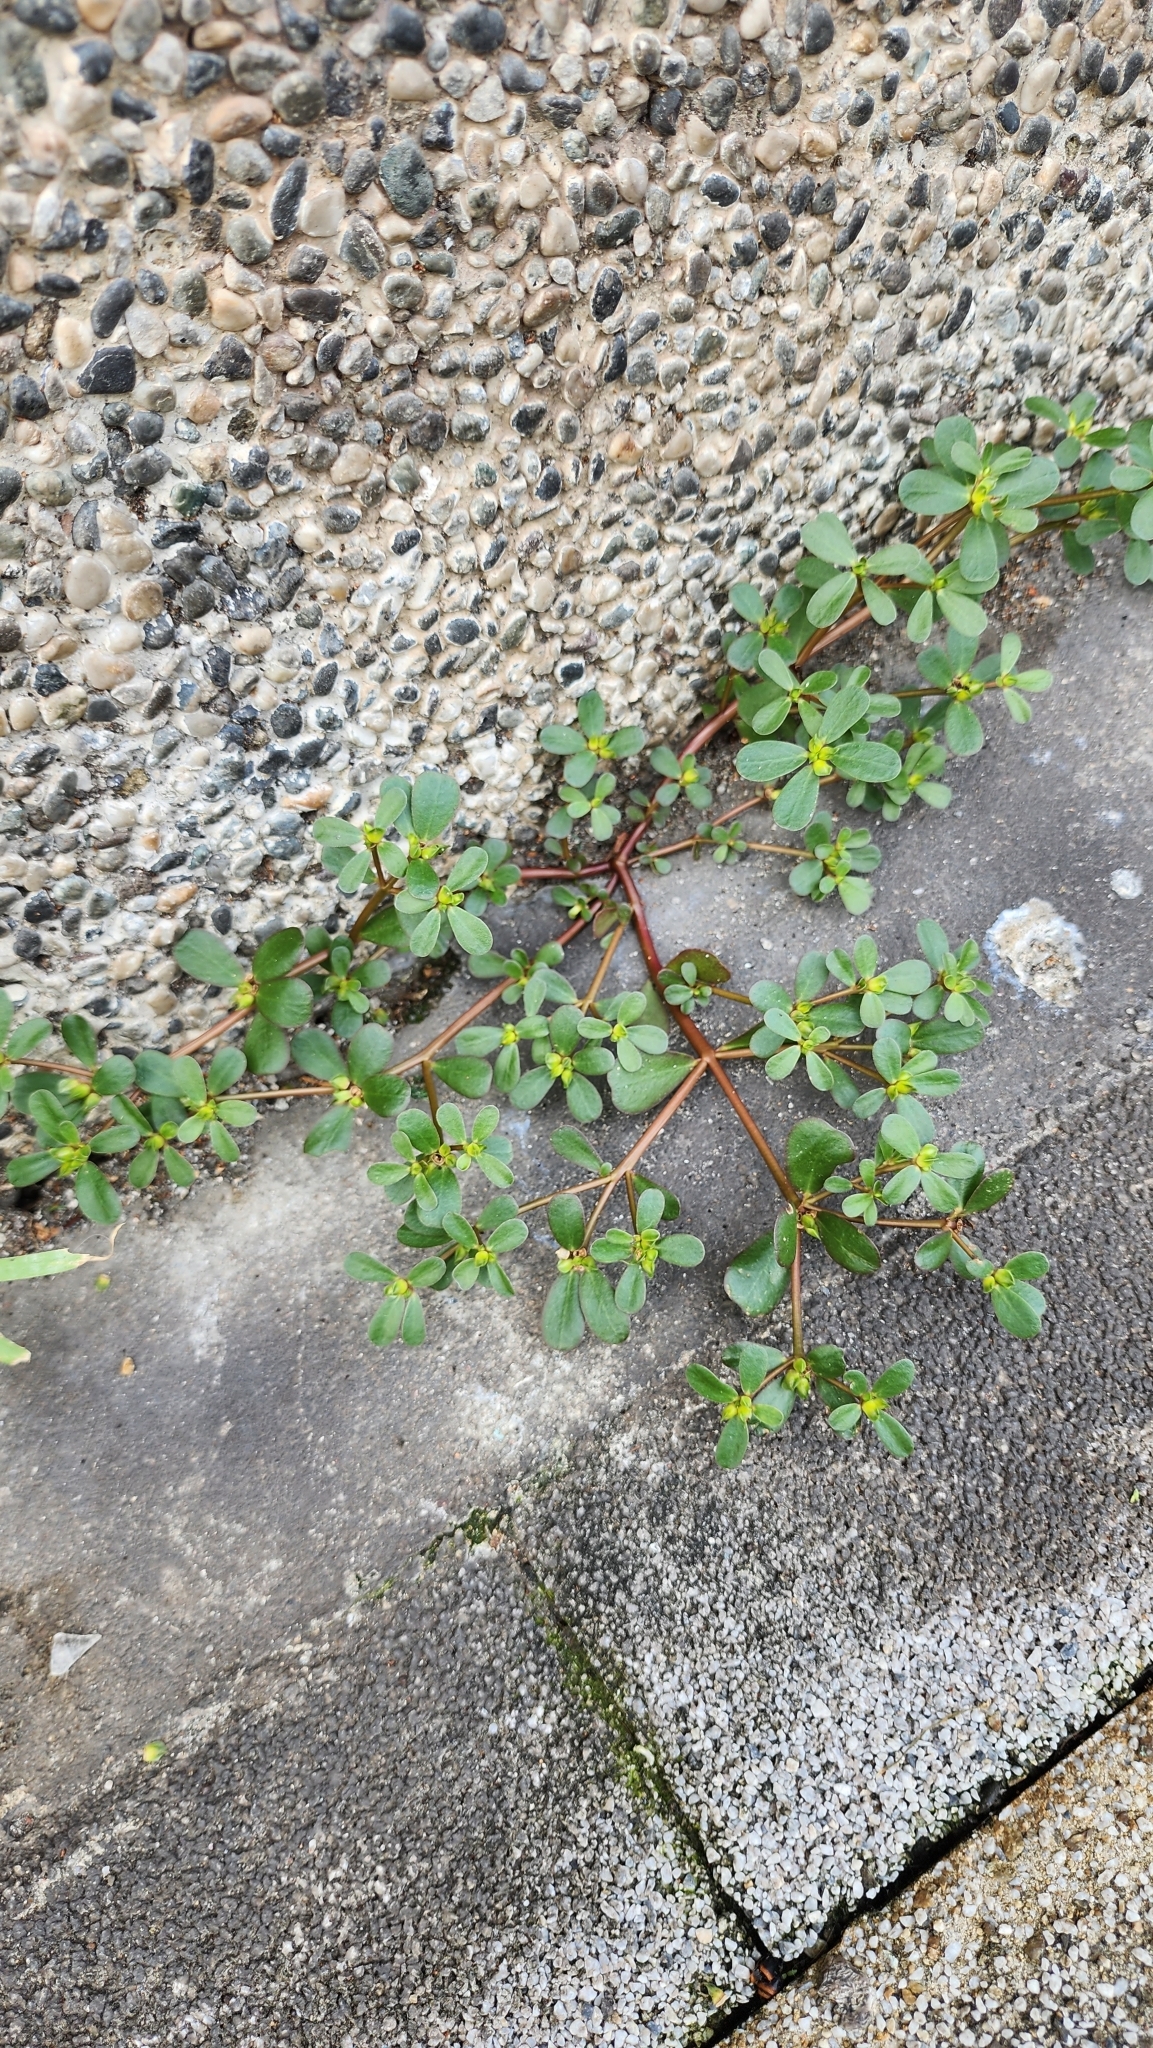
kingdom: Plantae
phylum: Tracheophyta
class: Magnoliopsida
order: Caryophyllales
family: Portulacaceae
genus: Portulaca
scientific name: Portulaca oleracea
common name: Common purslane
